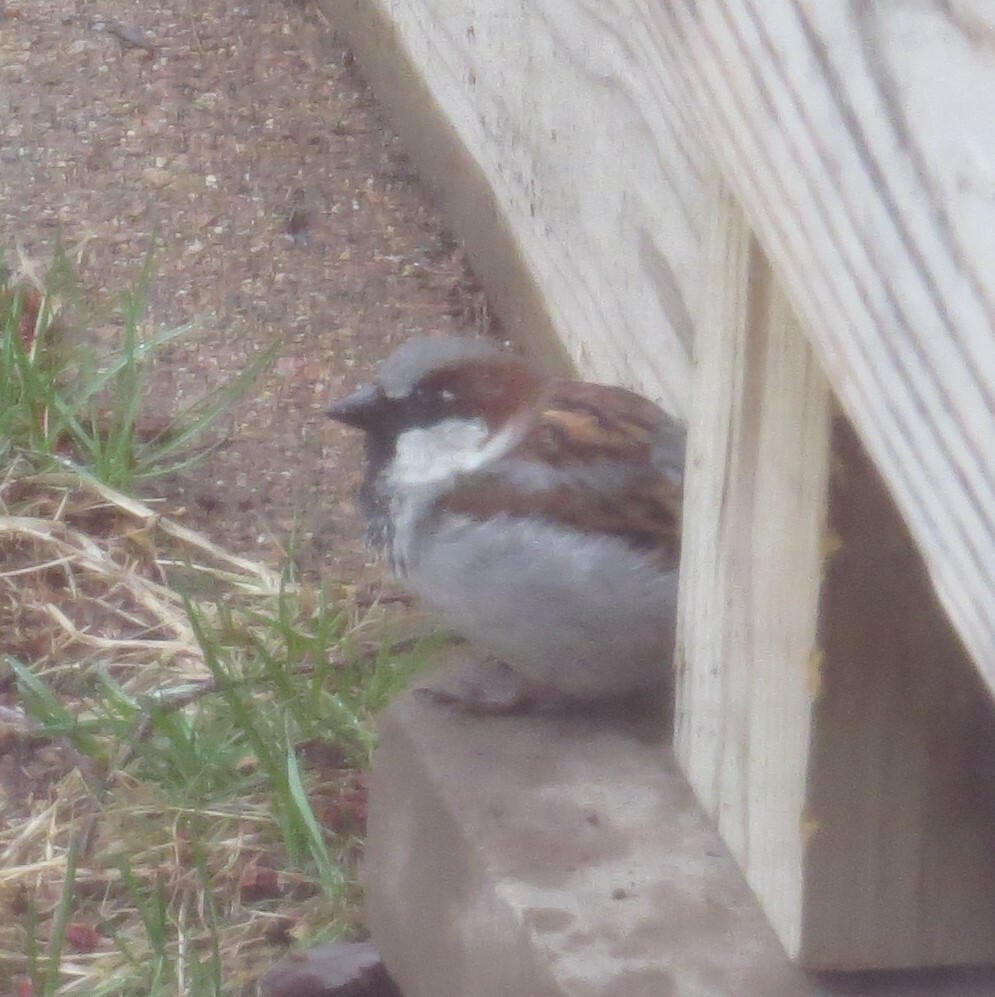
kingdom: Animalia
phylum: Chordata
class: Aves
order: Passeriformes
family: Passeridae
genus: Passer
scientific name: Passer domesticus
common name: House sparrow
